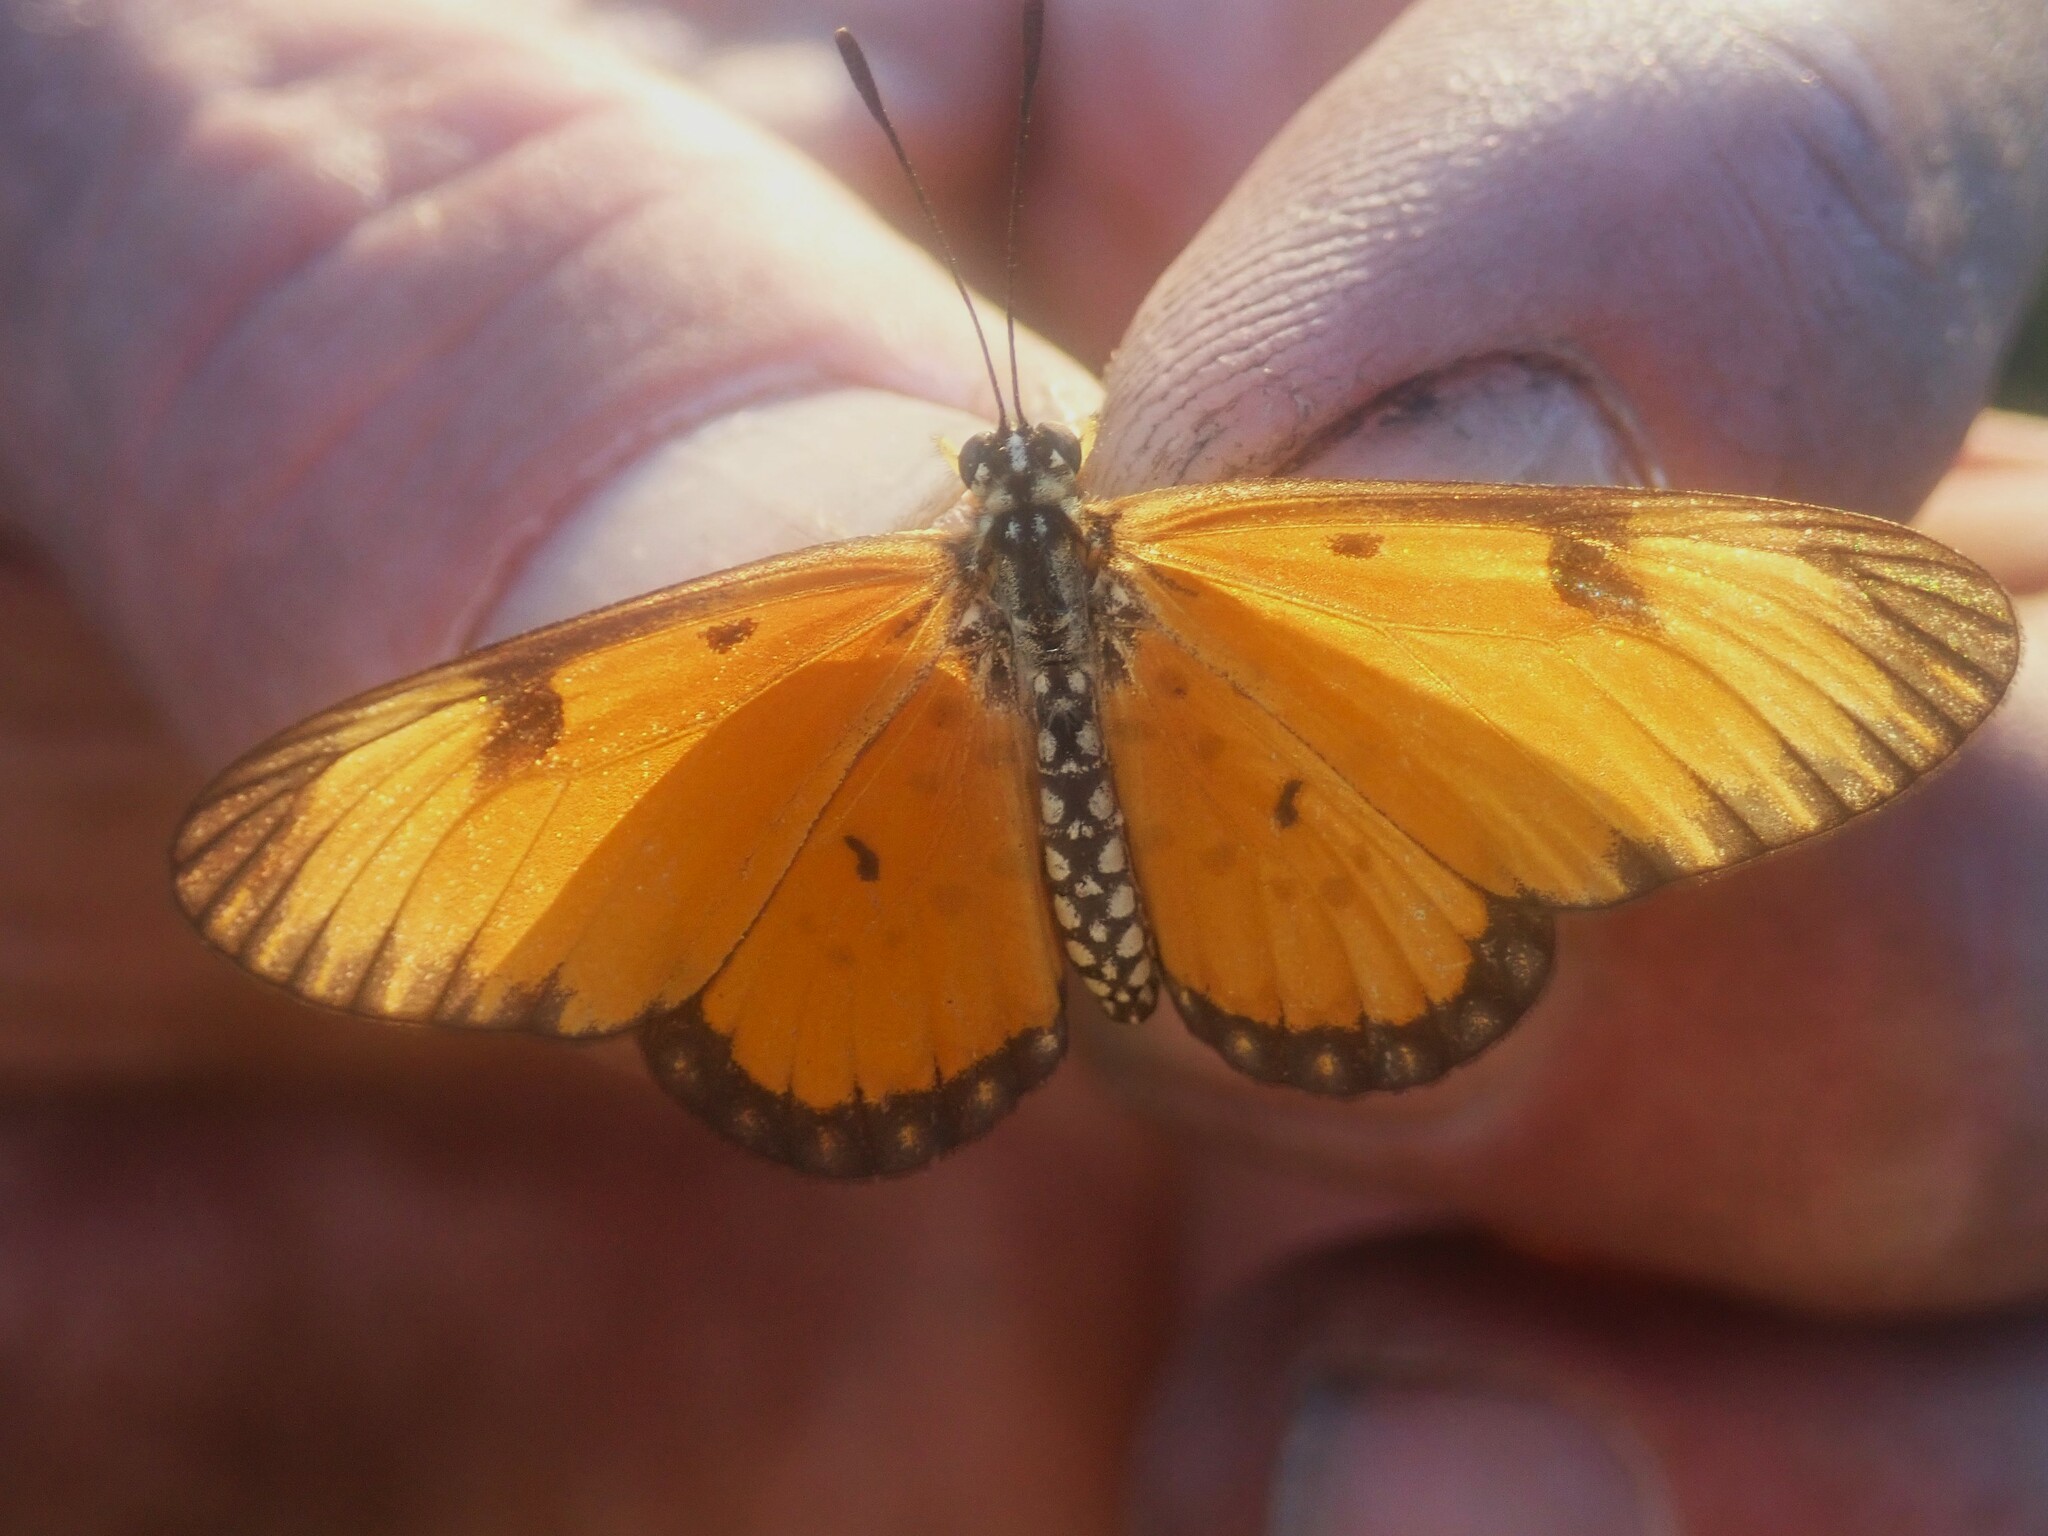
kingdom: Animalia
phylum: Arthropoda
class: Insecta
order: Lepidoptera
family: Nymphalidae
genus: Acraea
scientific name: Acraea Telchinia serena
